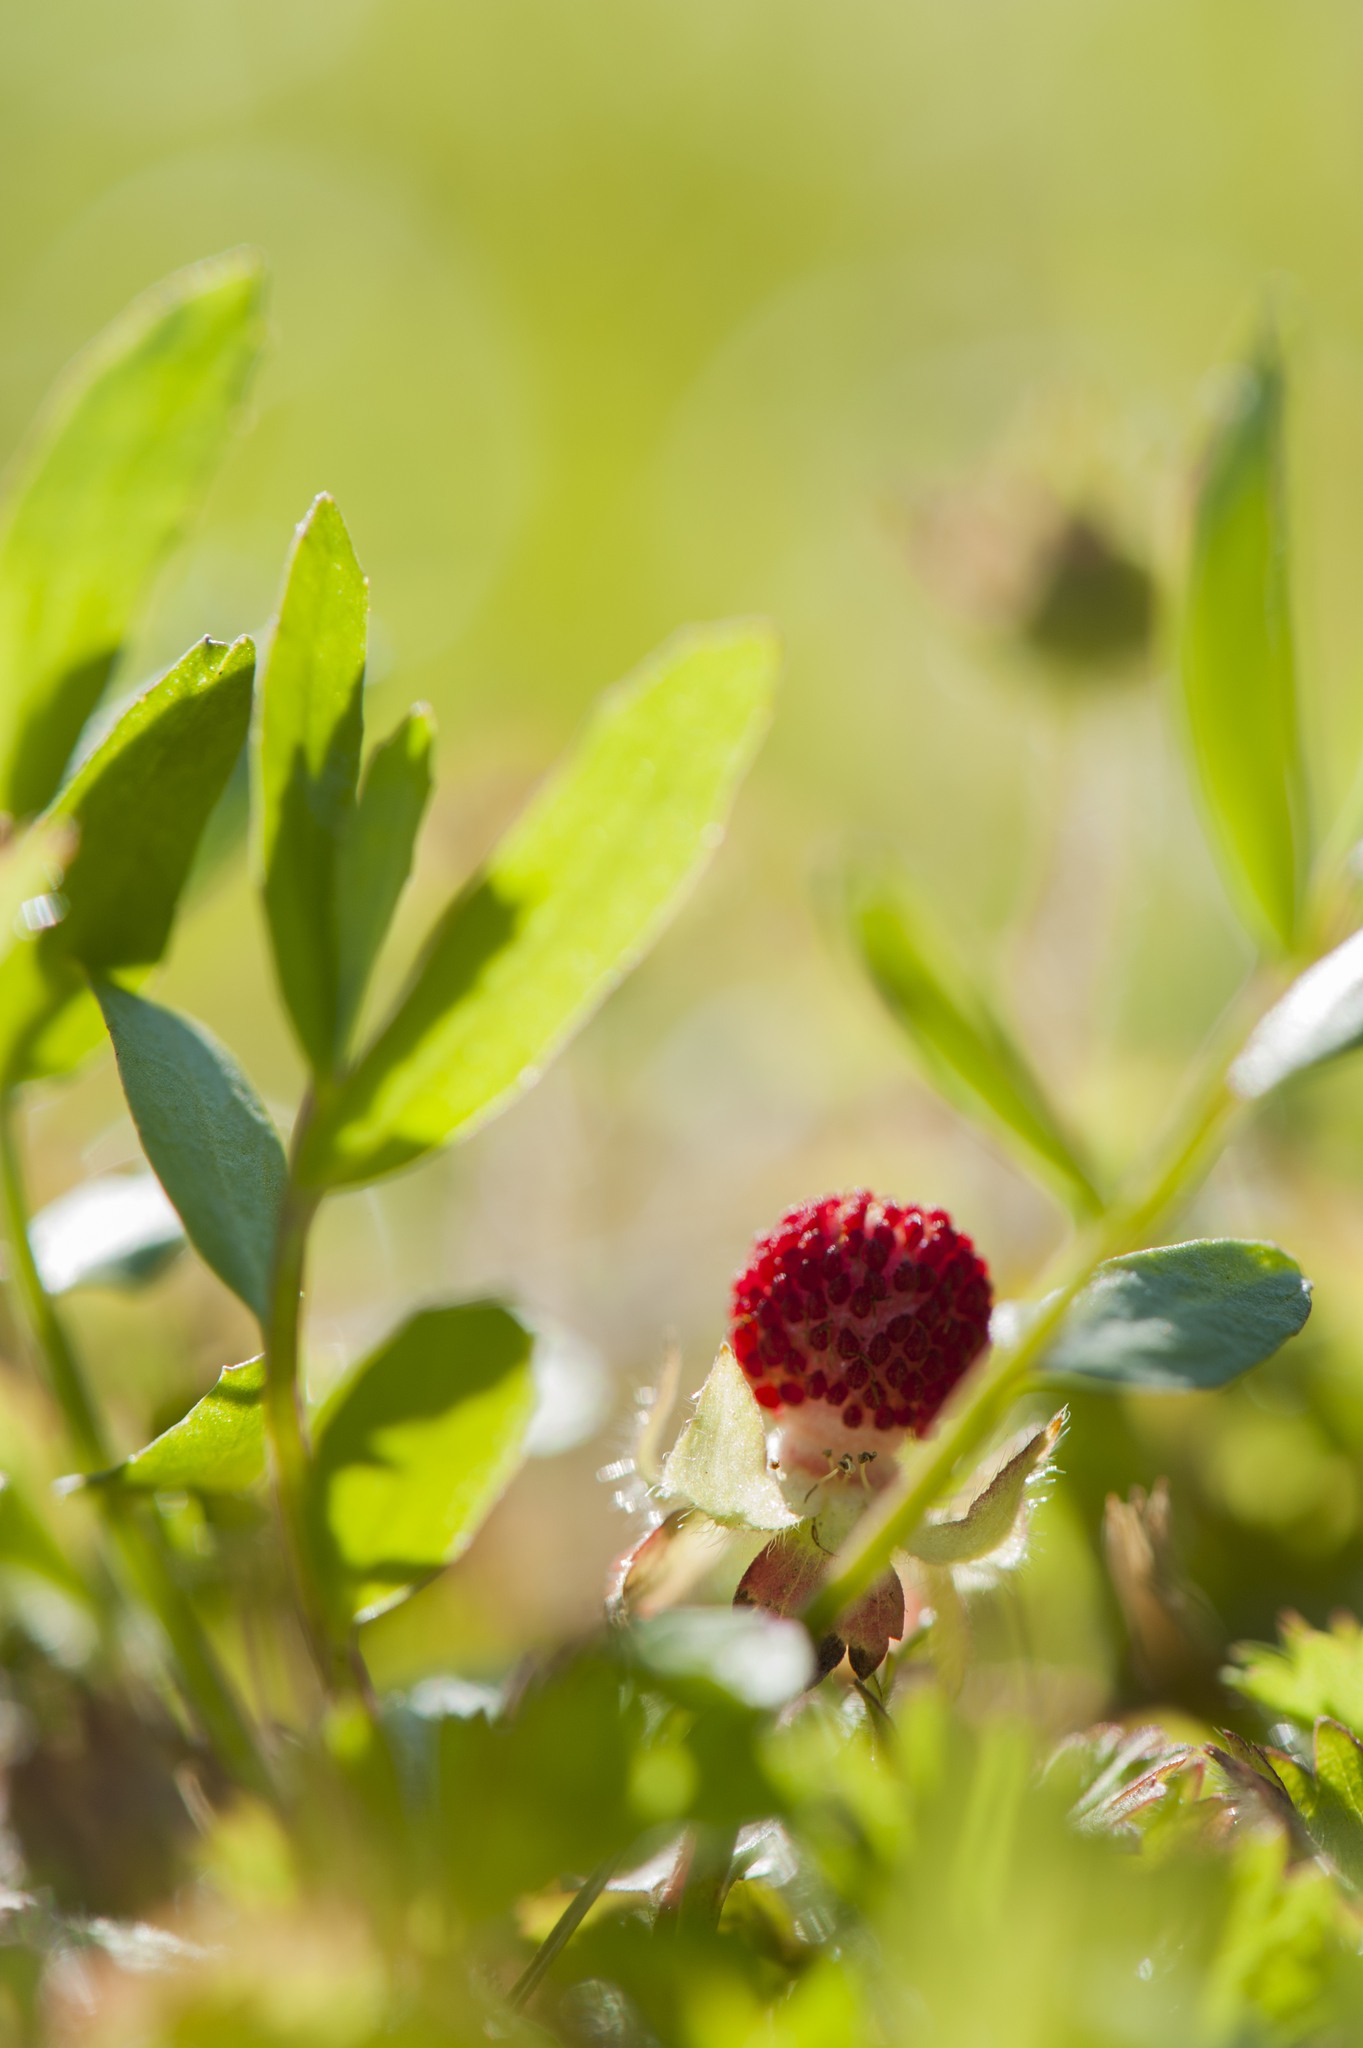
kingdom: Plantae
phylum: Tracheophyta
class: Magnoliopsida
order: Rosales
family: Rosaceae
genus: Potentilla
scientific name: Potentilla indica
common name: Yellow-flowered strawberry
